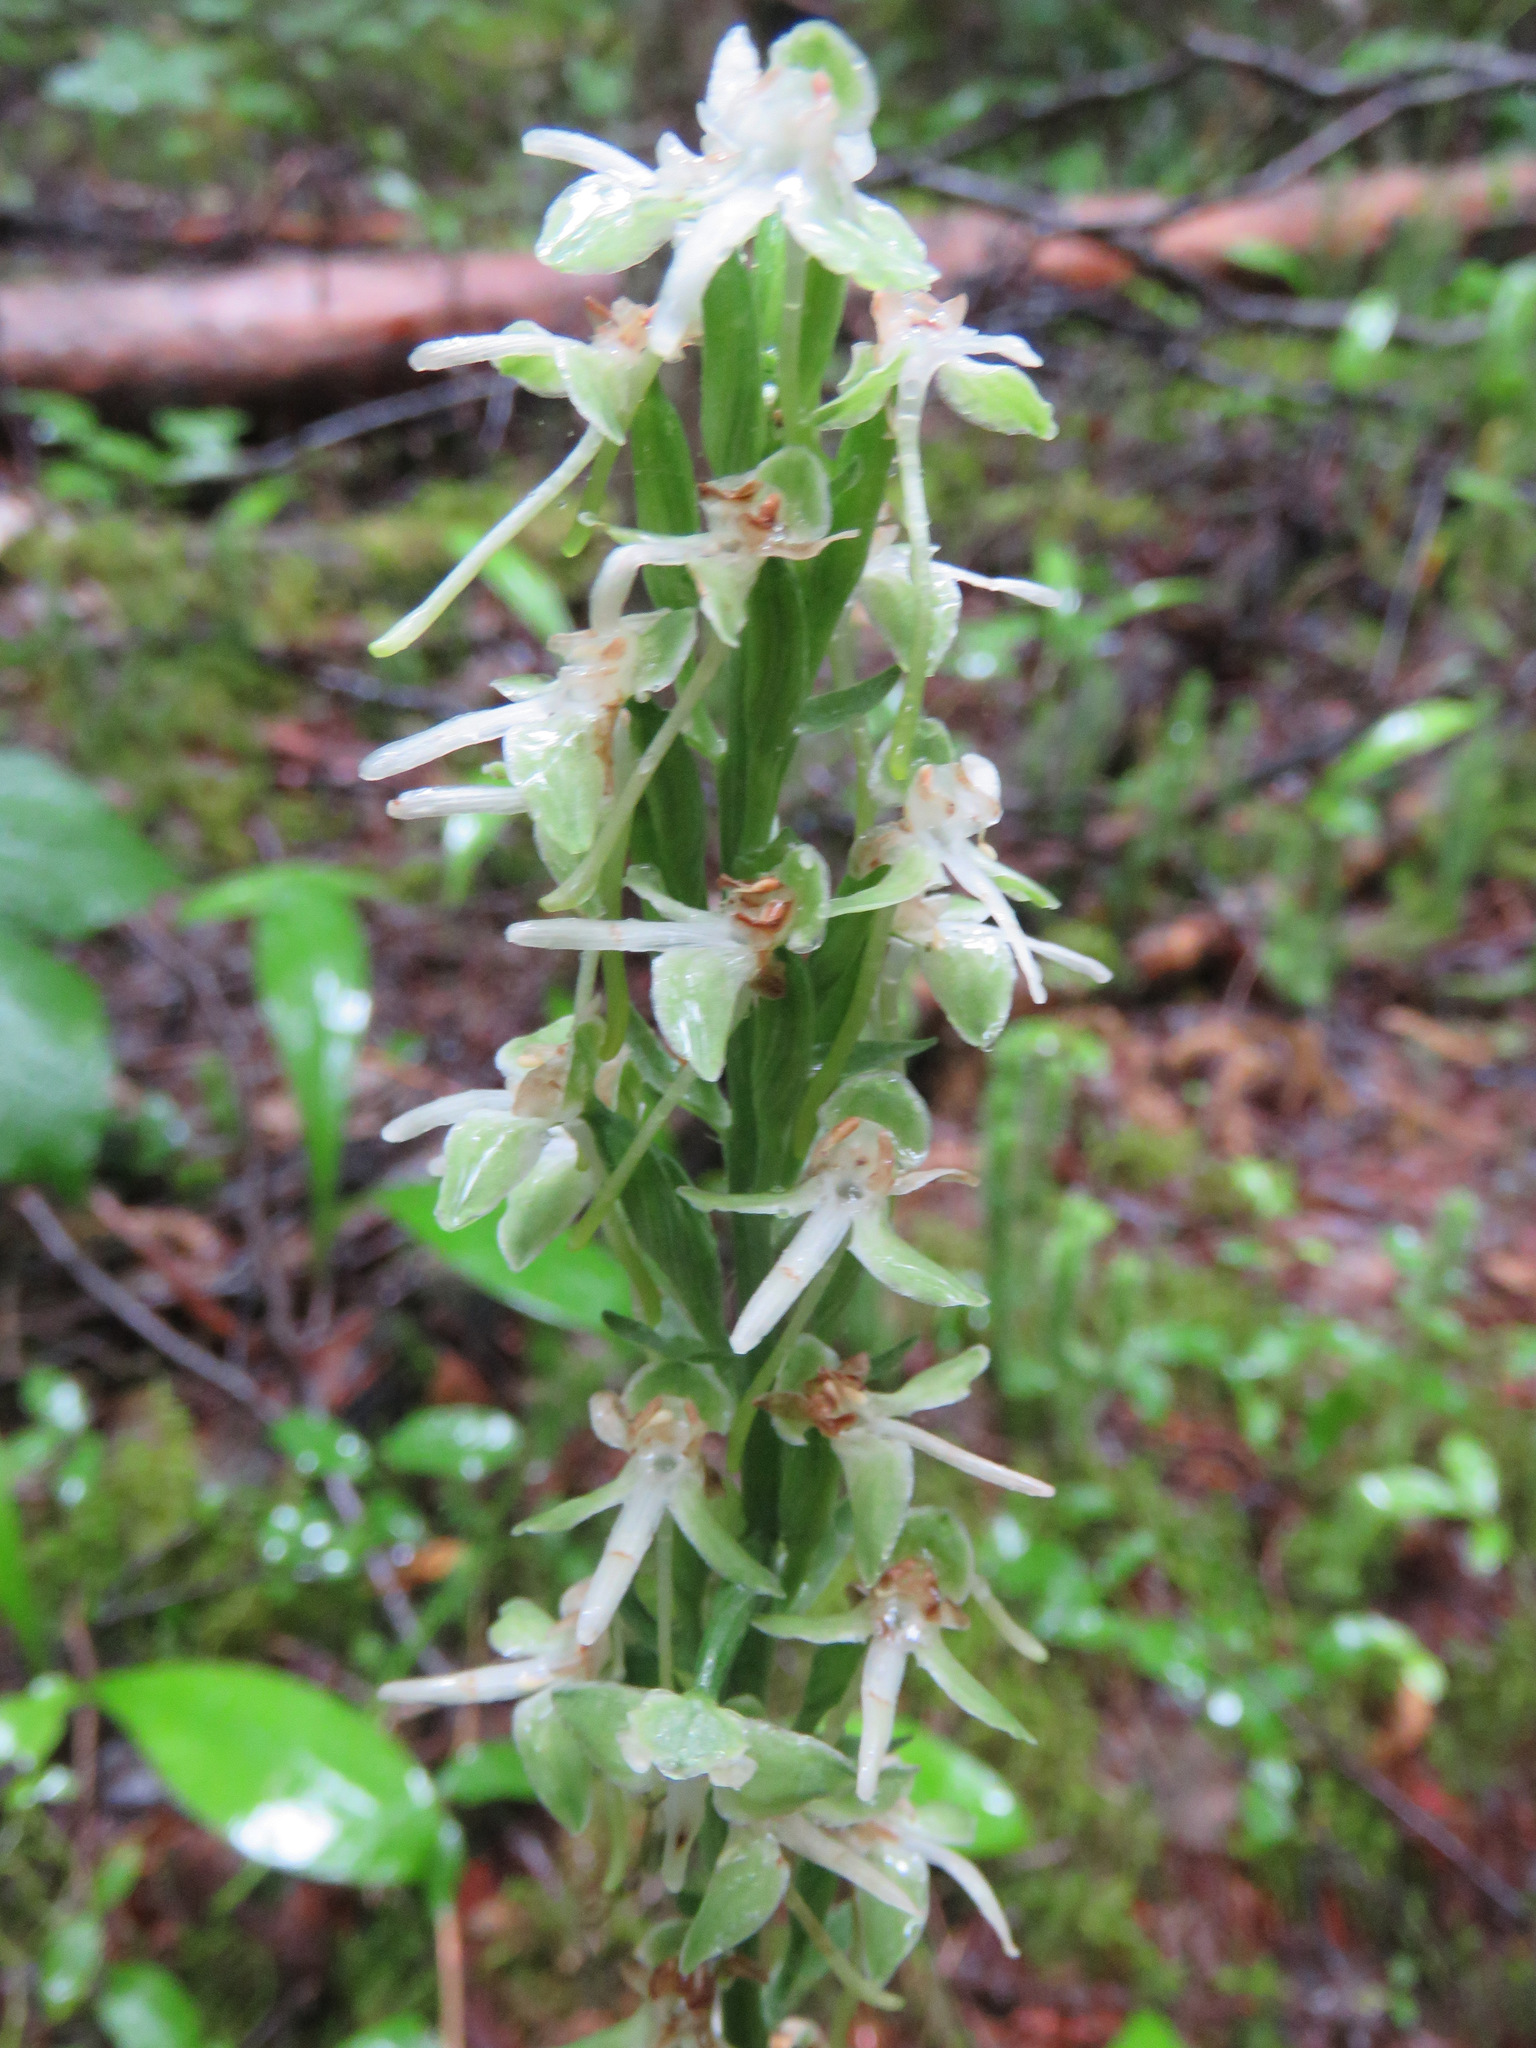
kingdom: Plantae
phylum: Tracheophyta
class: Liliopsida
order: Asparagales
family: Orchidaceae
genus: Platanthera
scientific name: Platanthera orbiculata
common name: Large round-leaved orchid
